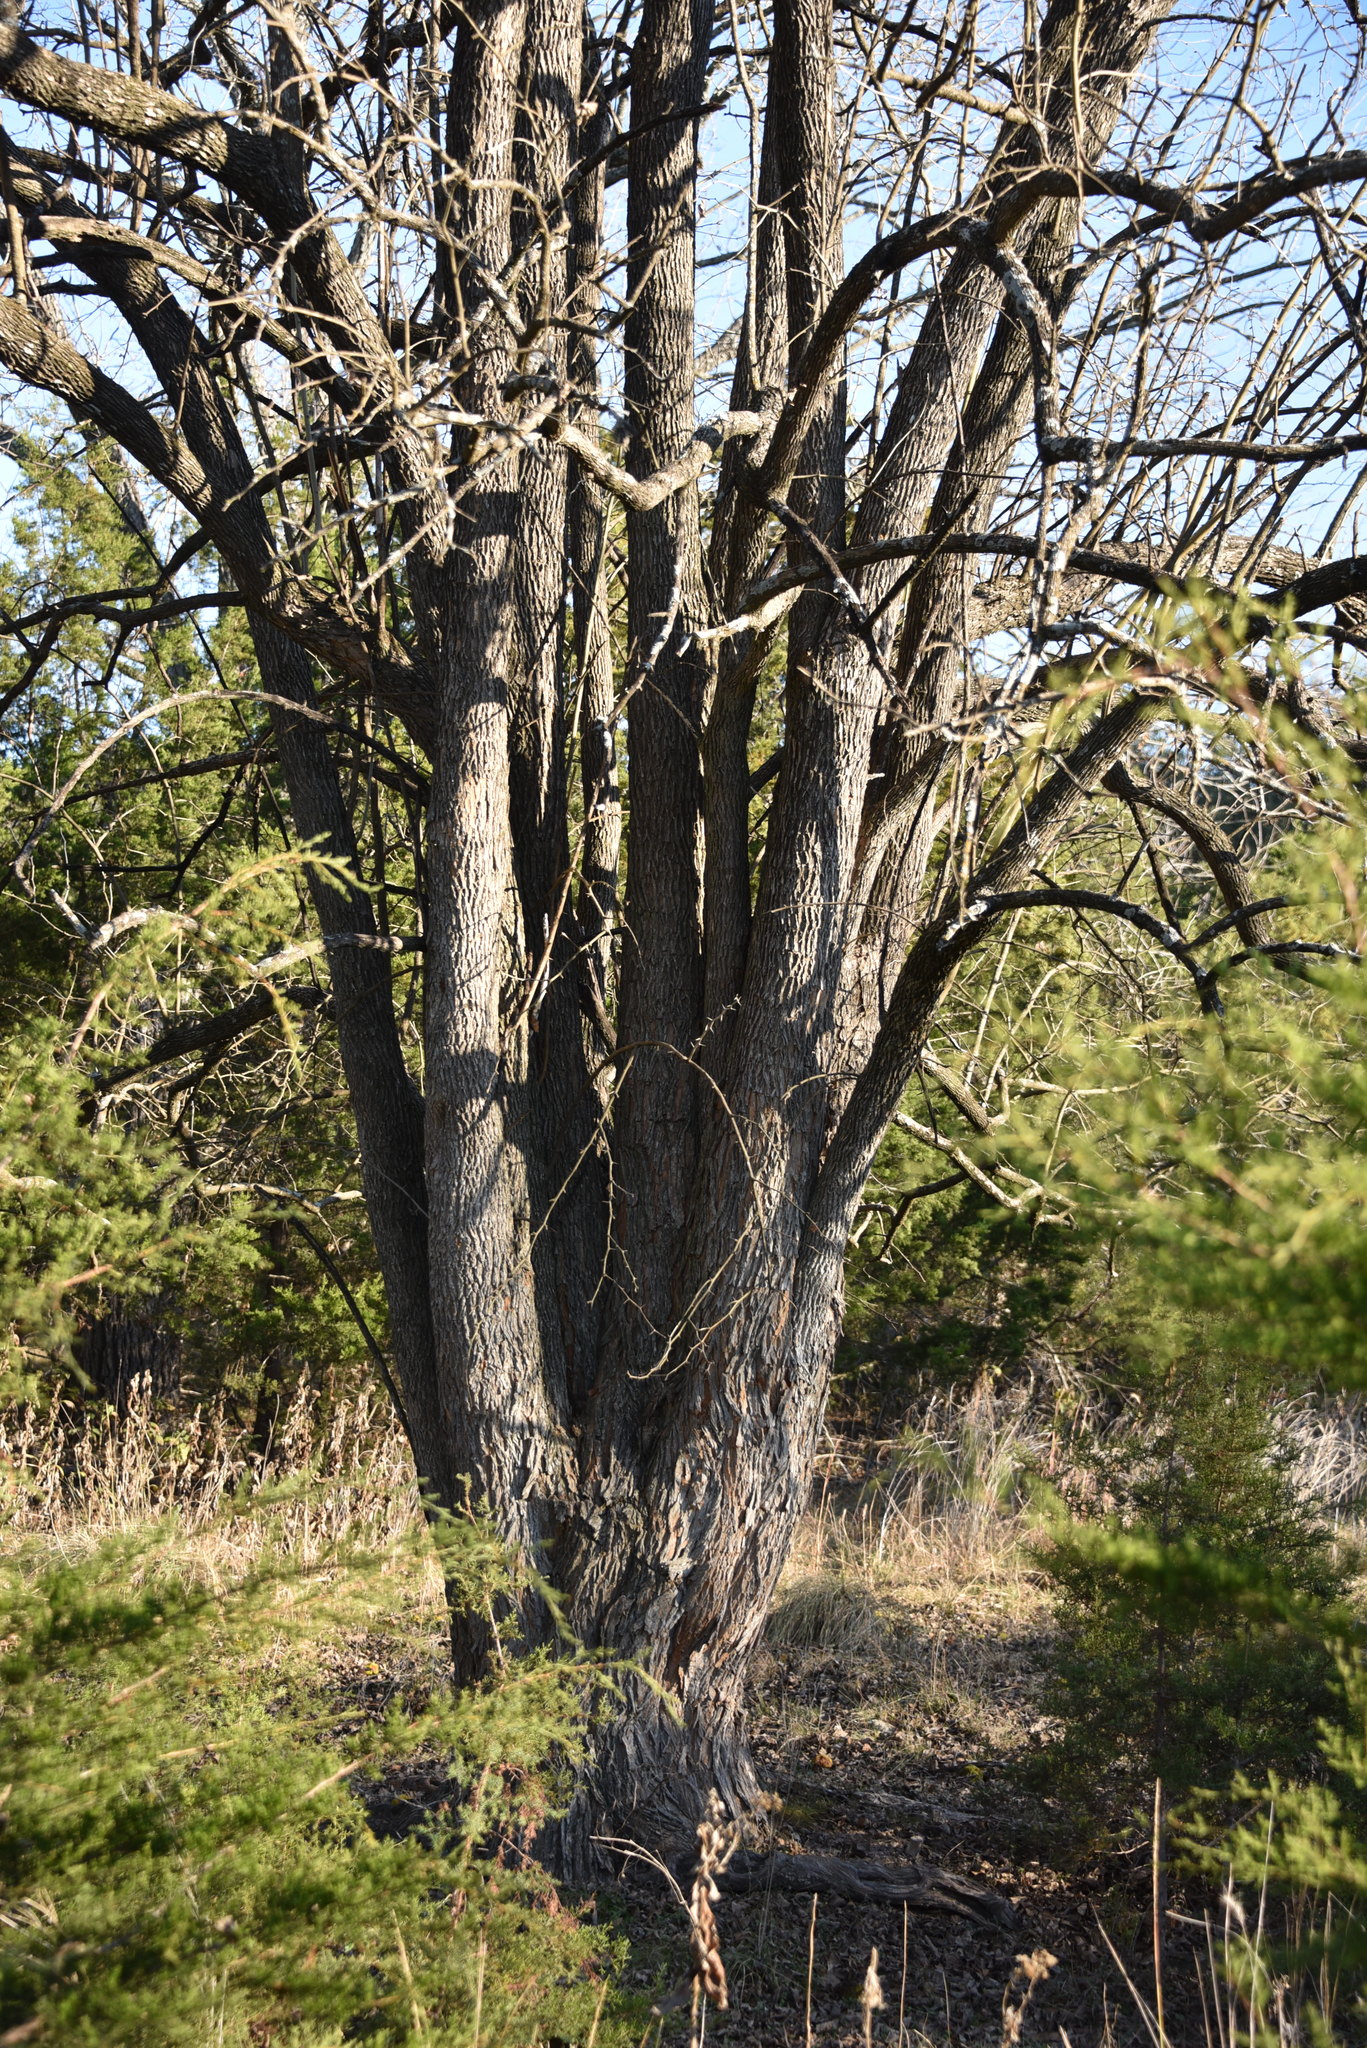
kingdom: Plantae
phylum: Tracheophyta
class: Magnoliopsida
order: Rosales
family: Moraceae
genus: Maclura
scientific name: Maclura pomifera
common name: Osage-orange
